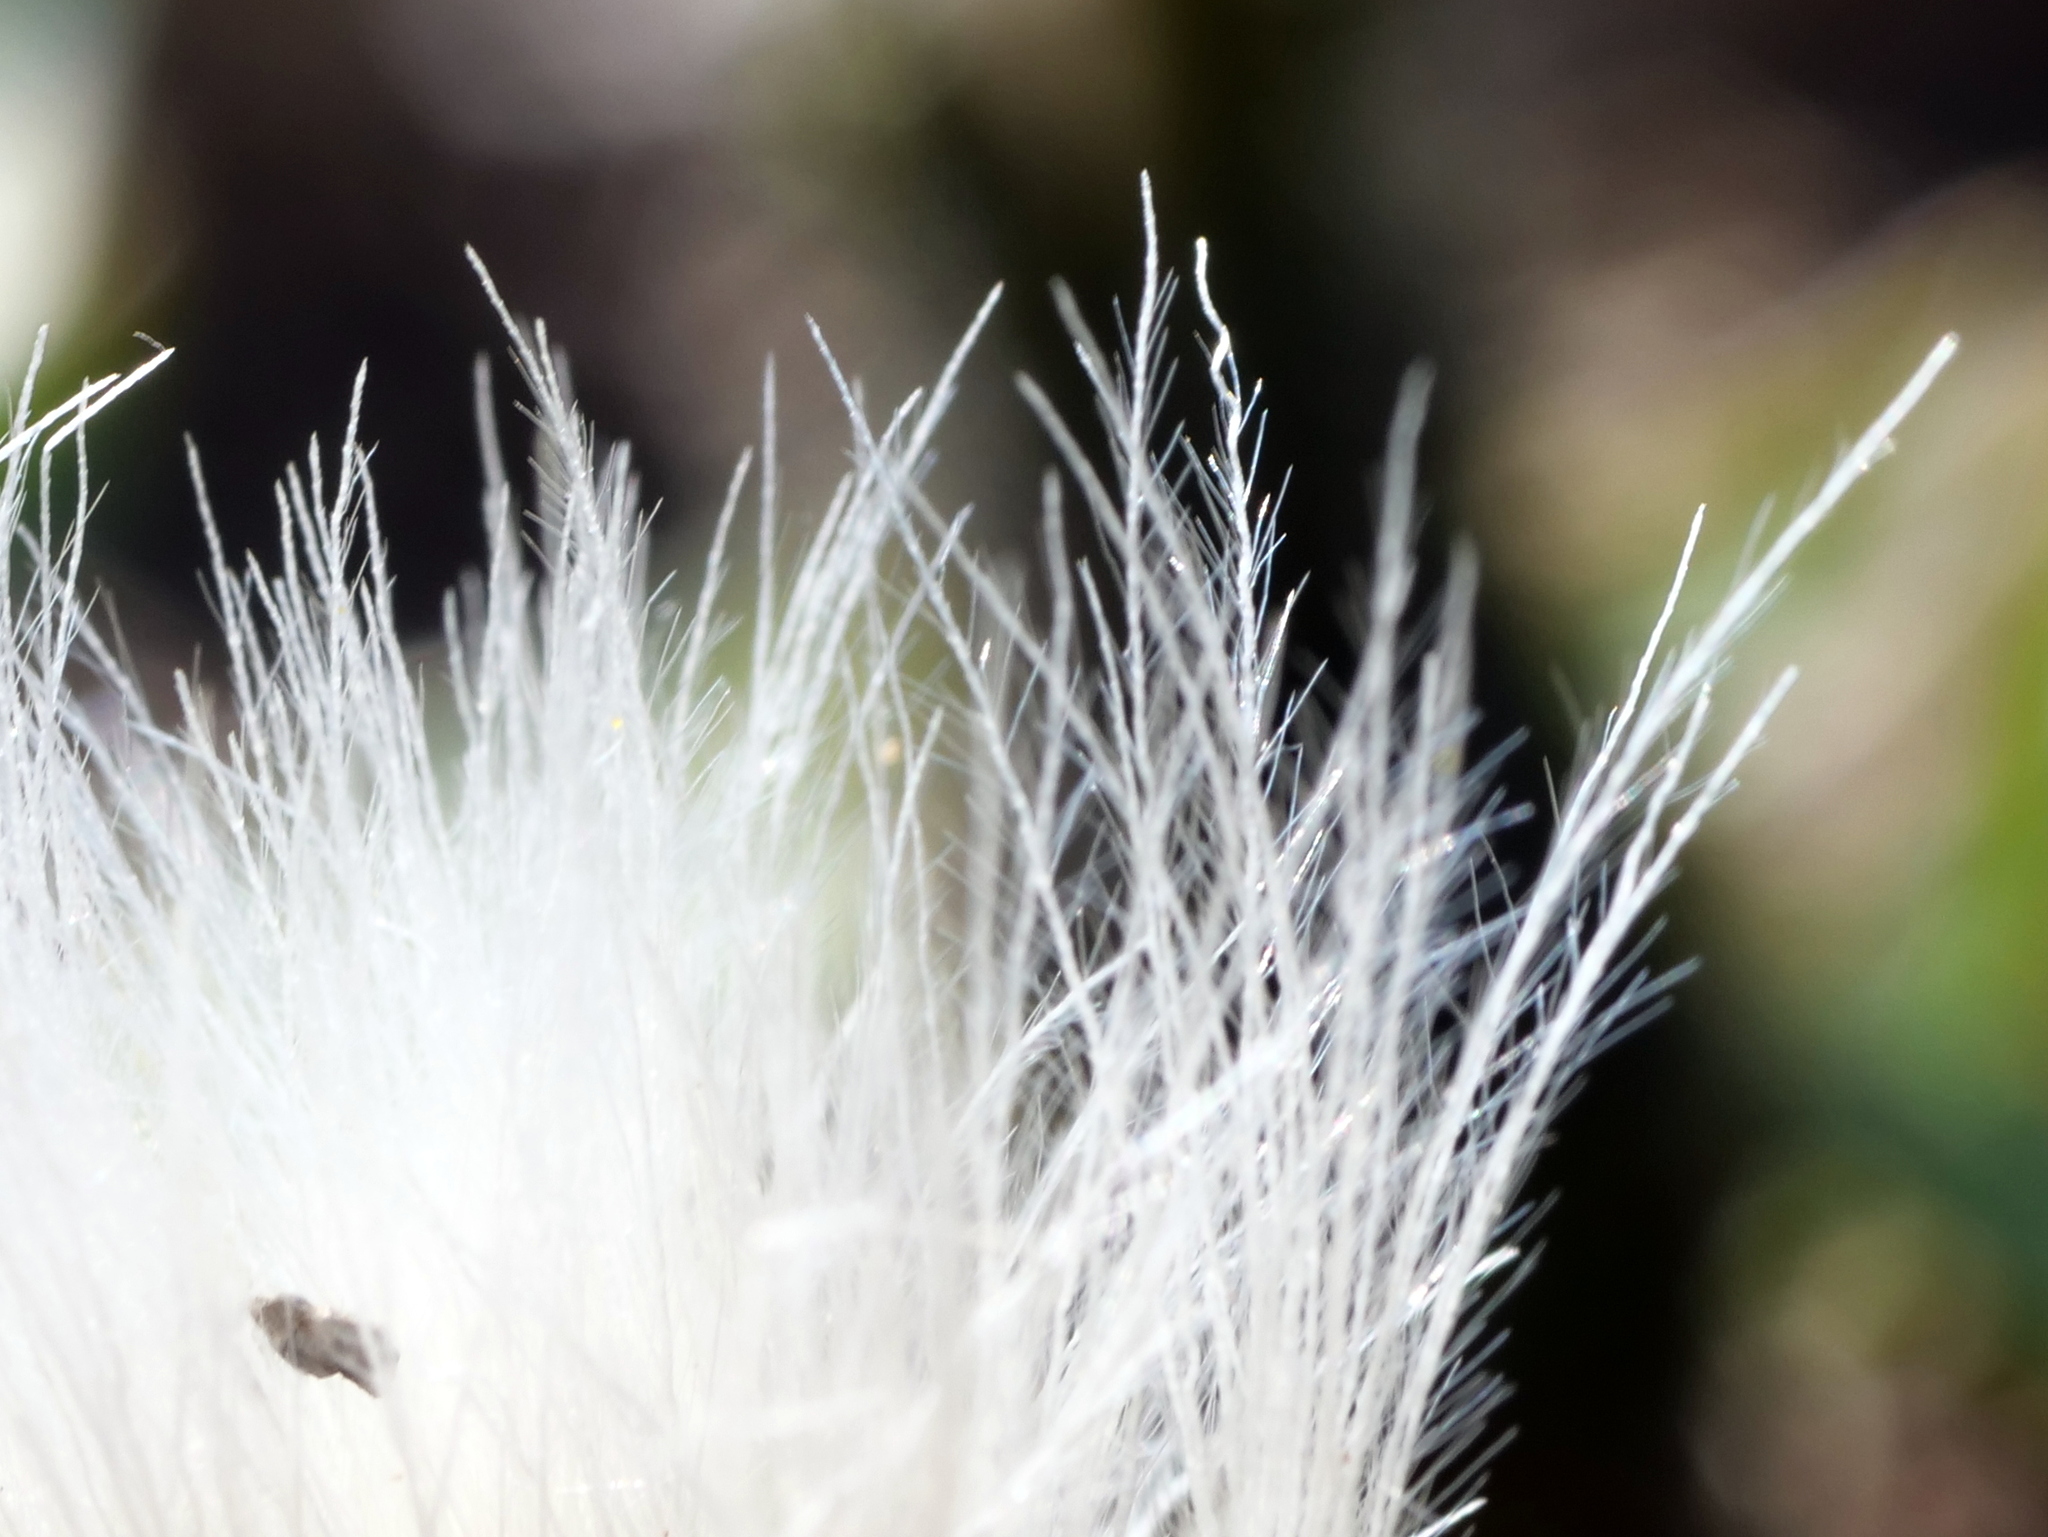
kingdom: Plantae
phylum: Tracheophyta
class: Magnoliopsida
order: Asterales
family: Asteraceae
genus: Scorzoneroides
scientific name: Scorzoneroides montana
